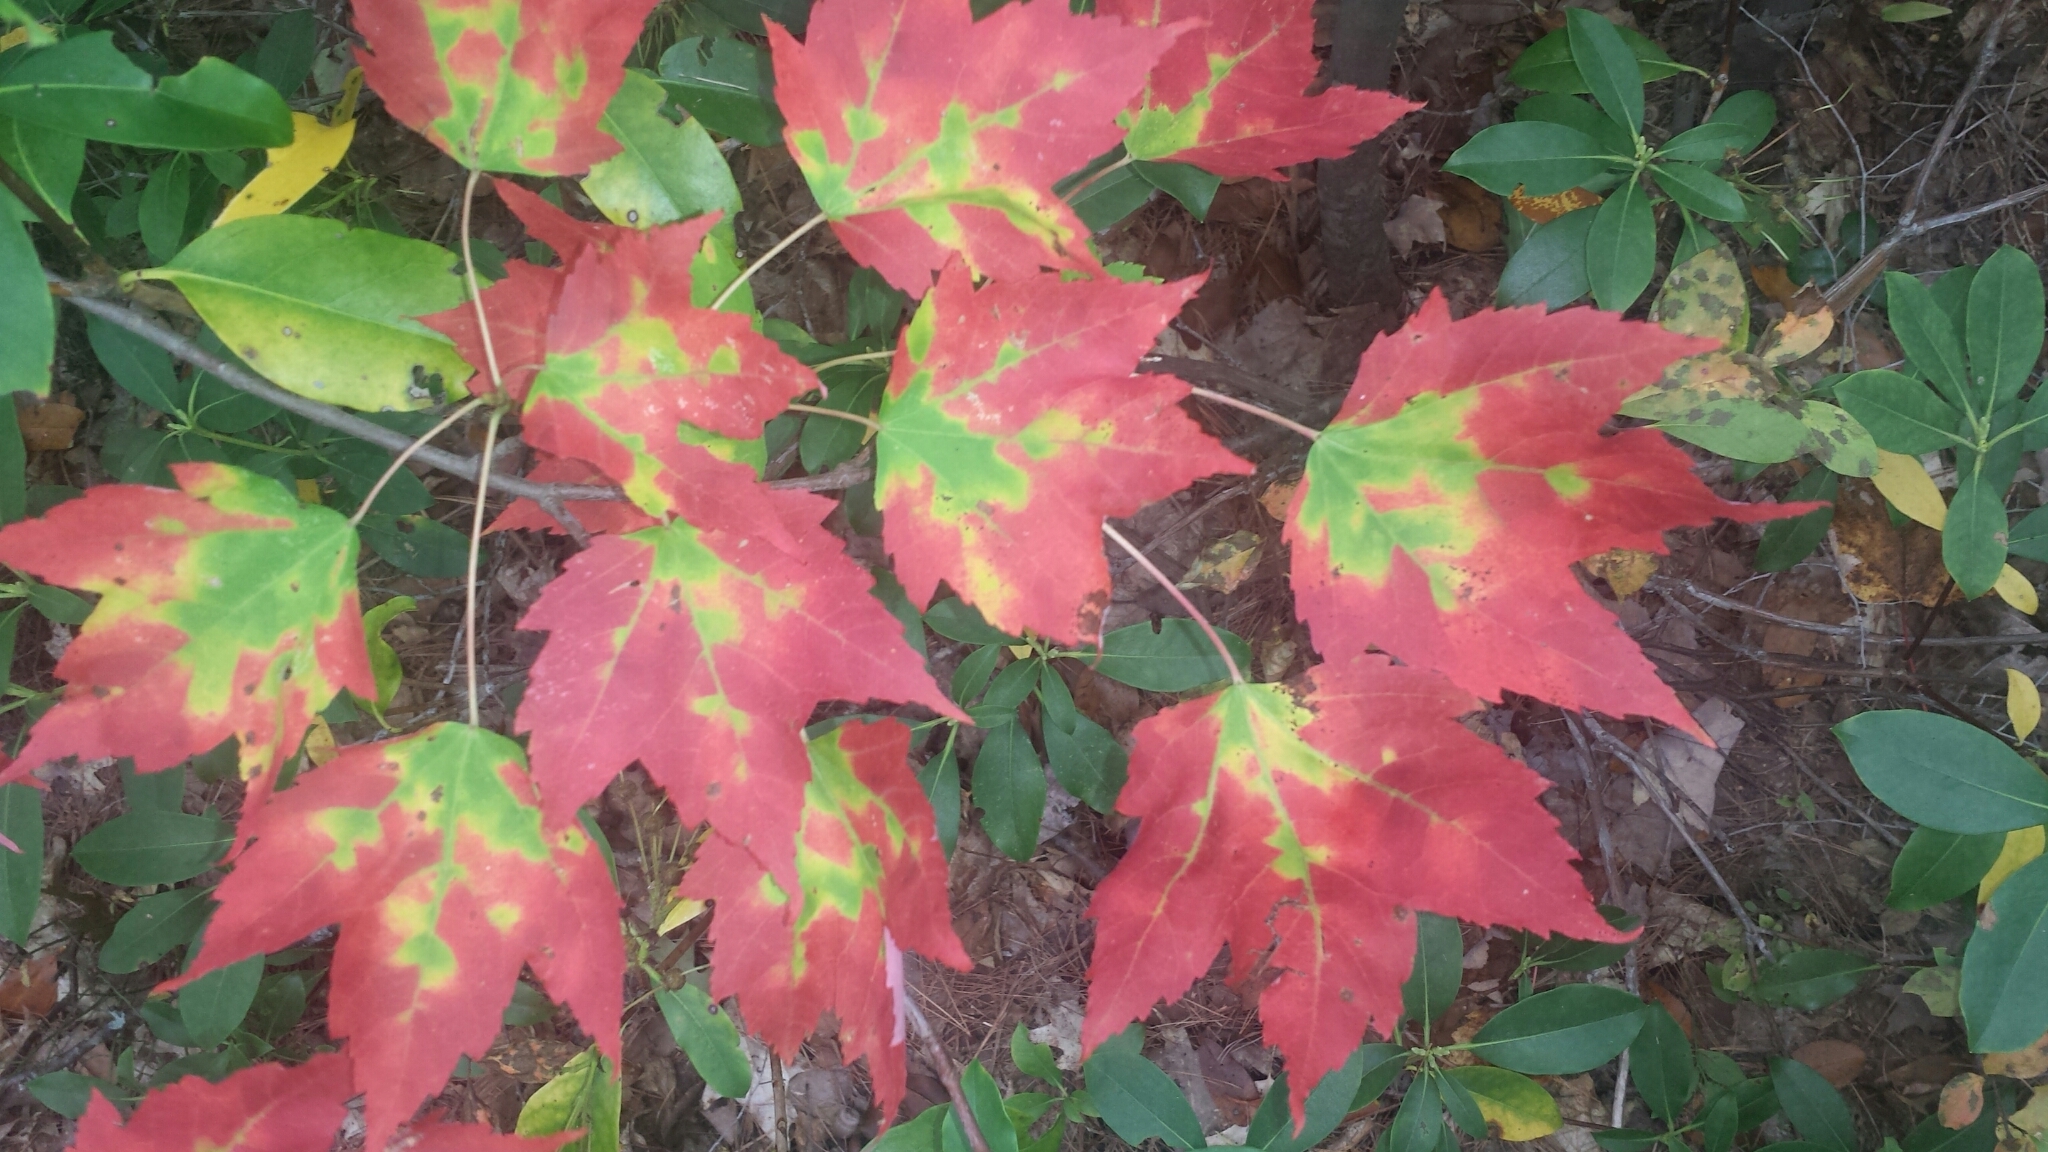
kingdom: Plantae
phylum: Tracheophyta
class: Magnoliopsida
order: Sapindales
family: Sapindaceae
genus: Acer
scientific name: Acer rubrum
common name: Red maple
